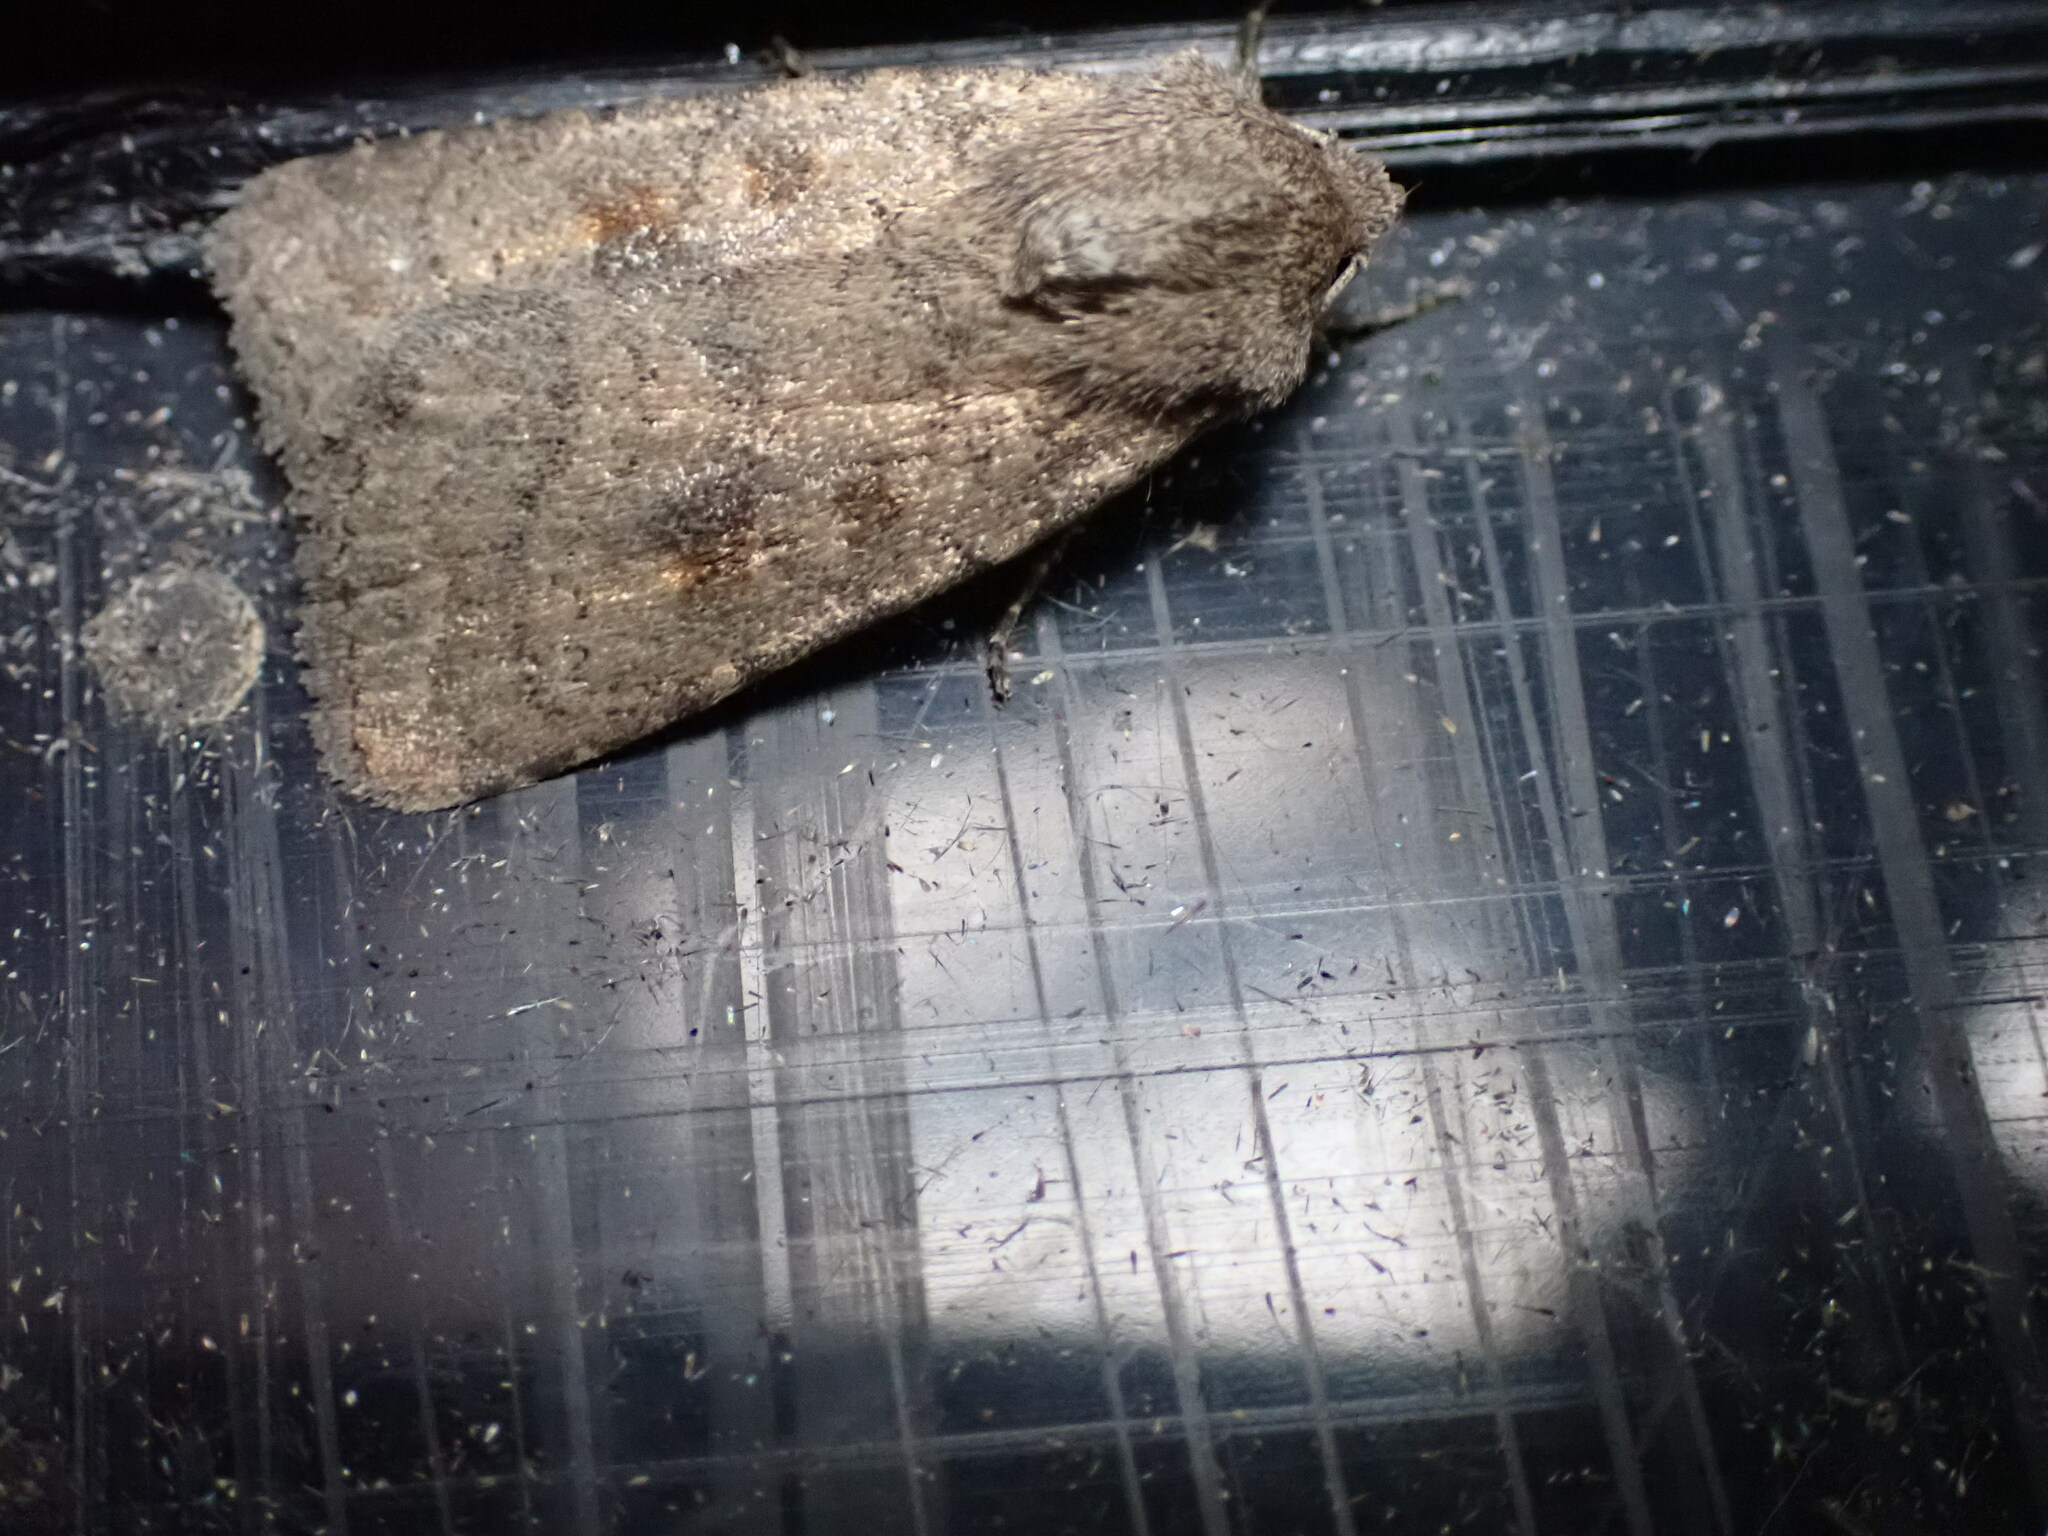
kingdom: Animalia
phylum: Arthropoda
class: Insecta
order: Lepidoptera
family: Noctuidae
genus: Caradrina
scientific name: Caradrina morpheus
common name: Mottled rustic
